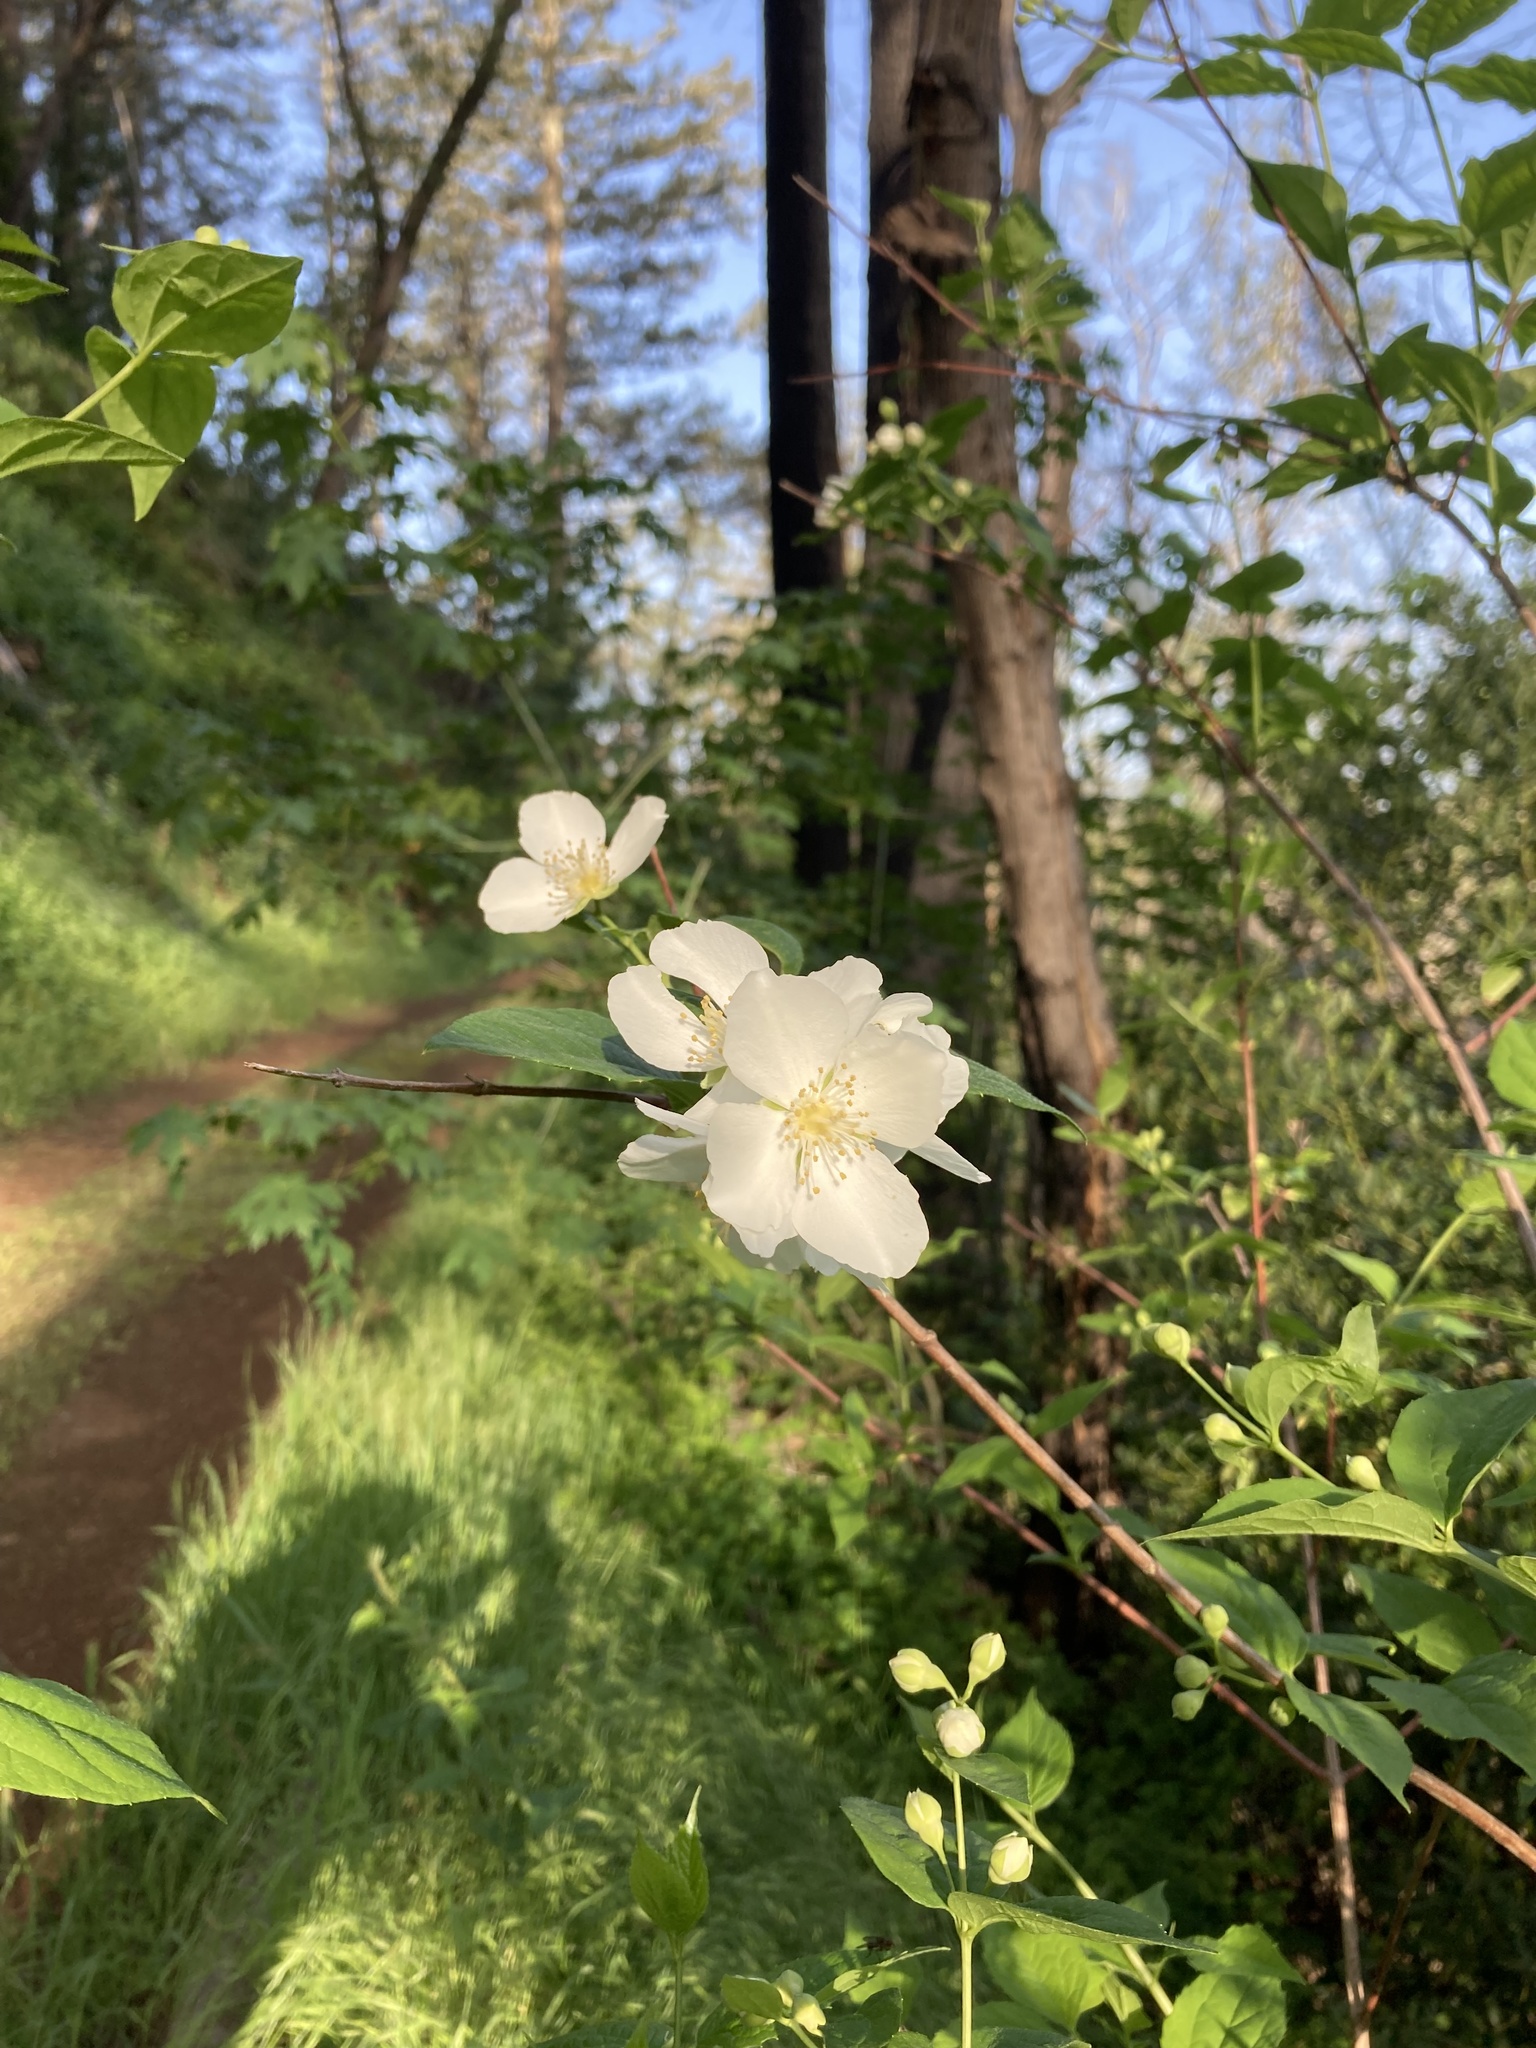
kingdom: Plantae
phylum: Tracheophyta
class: Magnoliopsida
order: Cornales
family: Hydrangeaceae
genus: Philadelphus
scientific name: Philadelphus lewisii
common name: Lewis's mock orange
